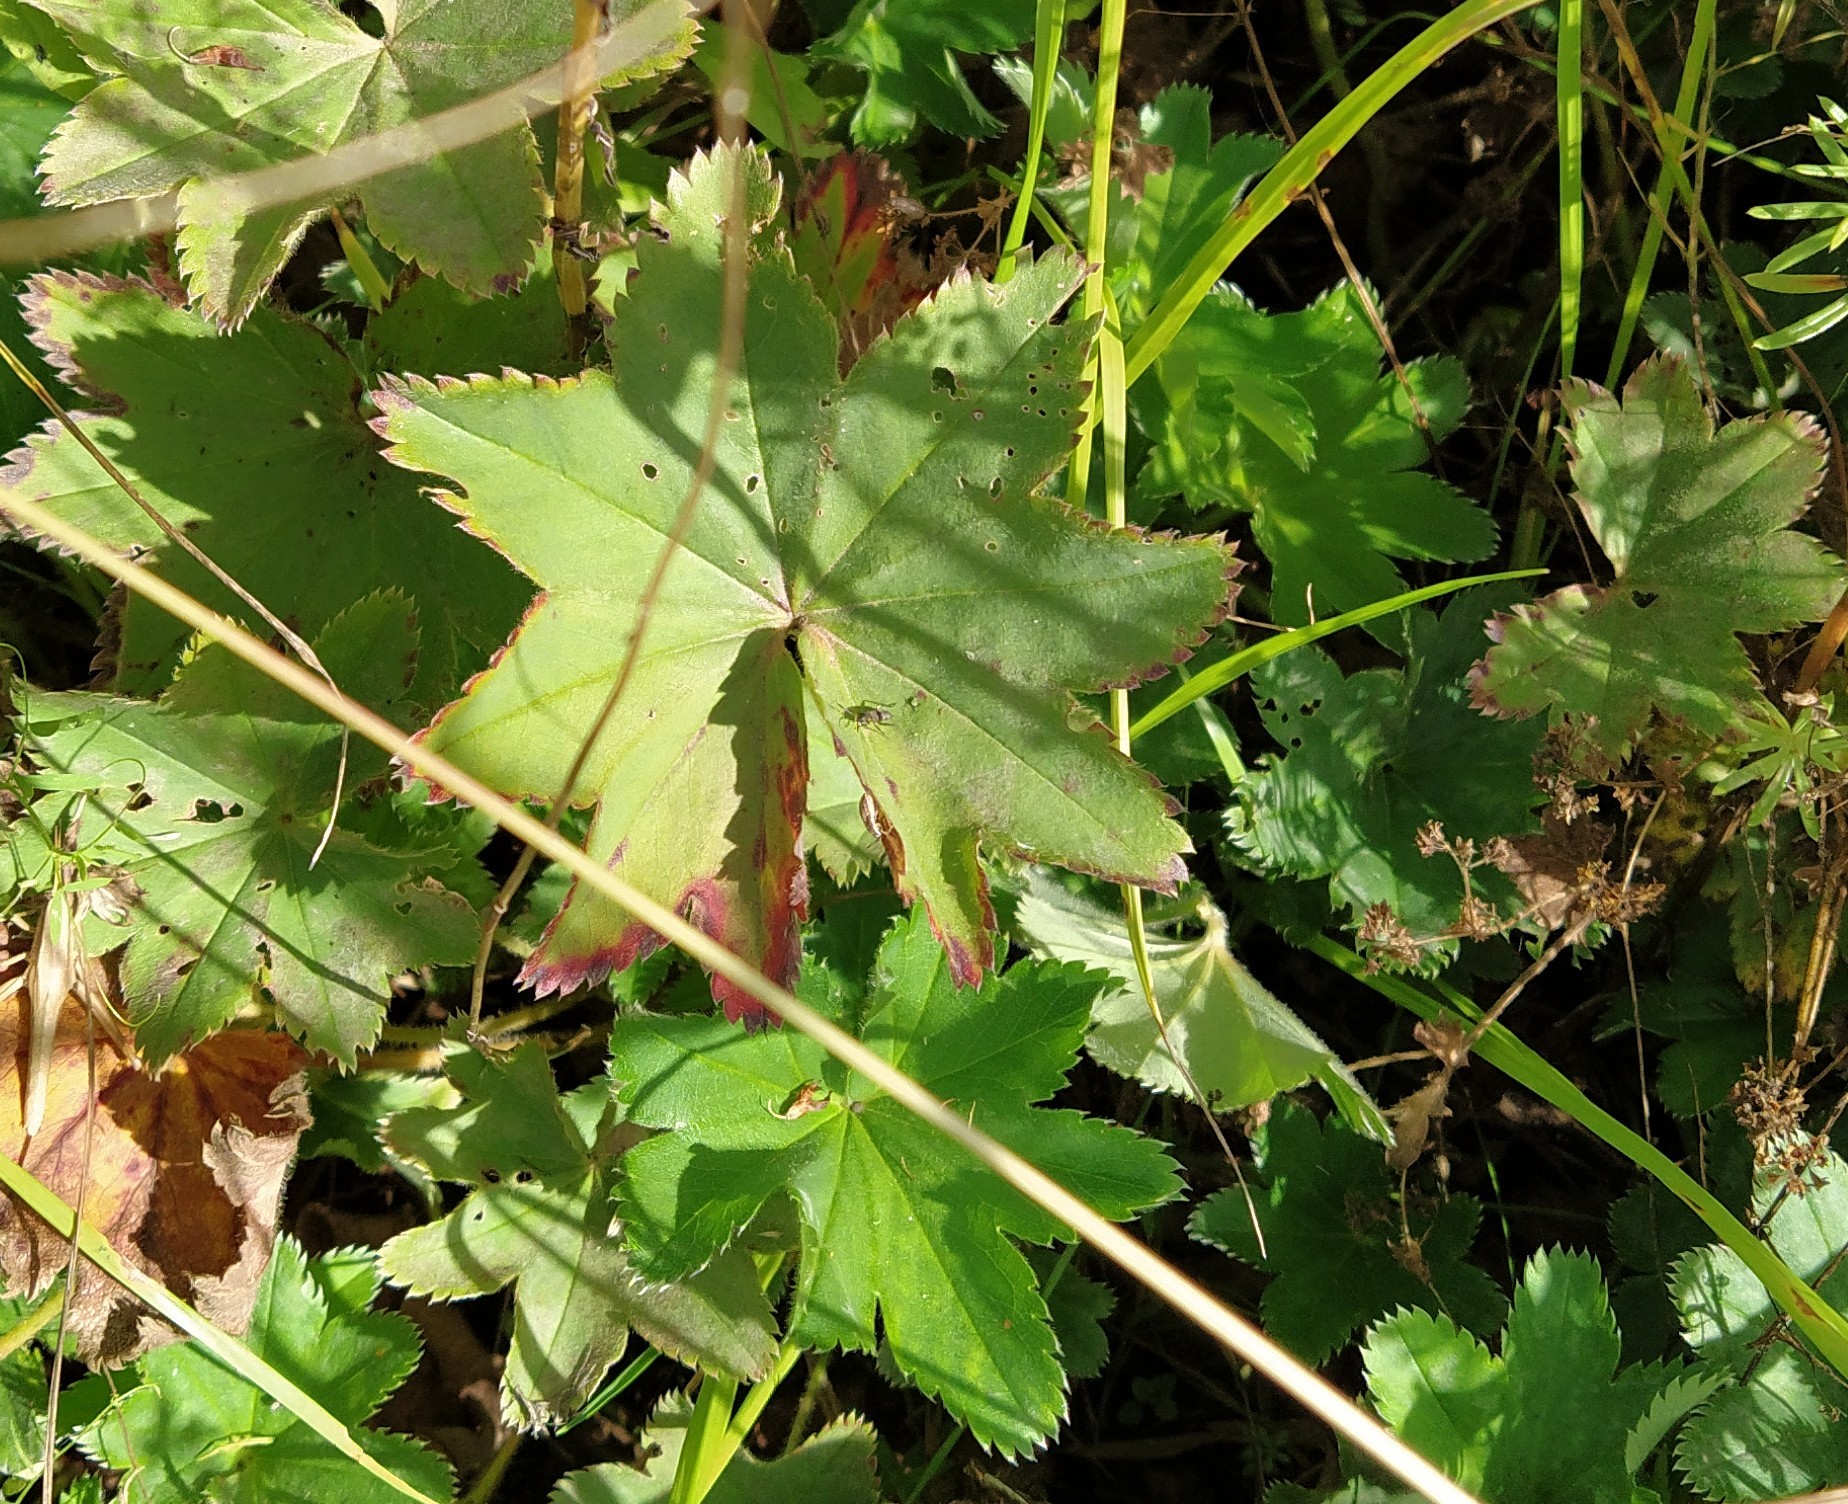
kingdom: Plantae
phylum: Tracheophyta
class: Magnoliopsida
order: Rosales
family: Rosaceae
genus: Alchemilla
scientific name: Alchemilla conglobata
